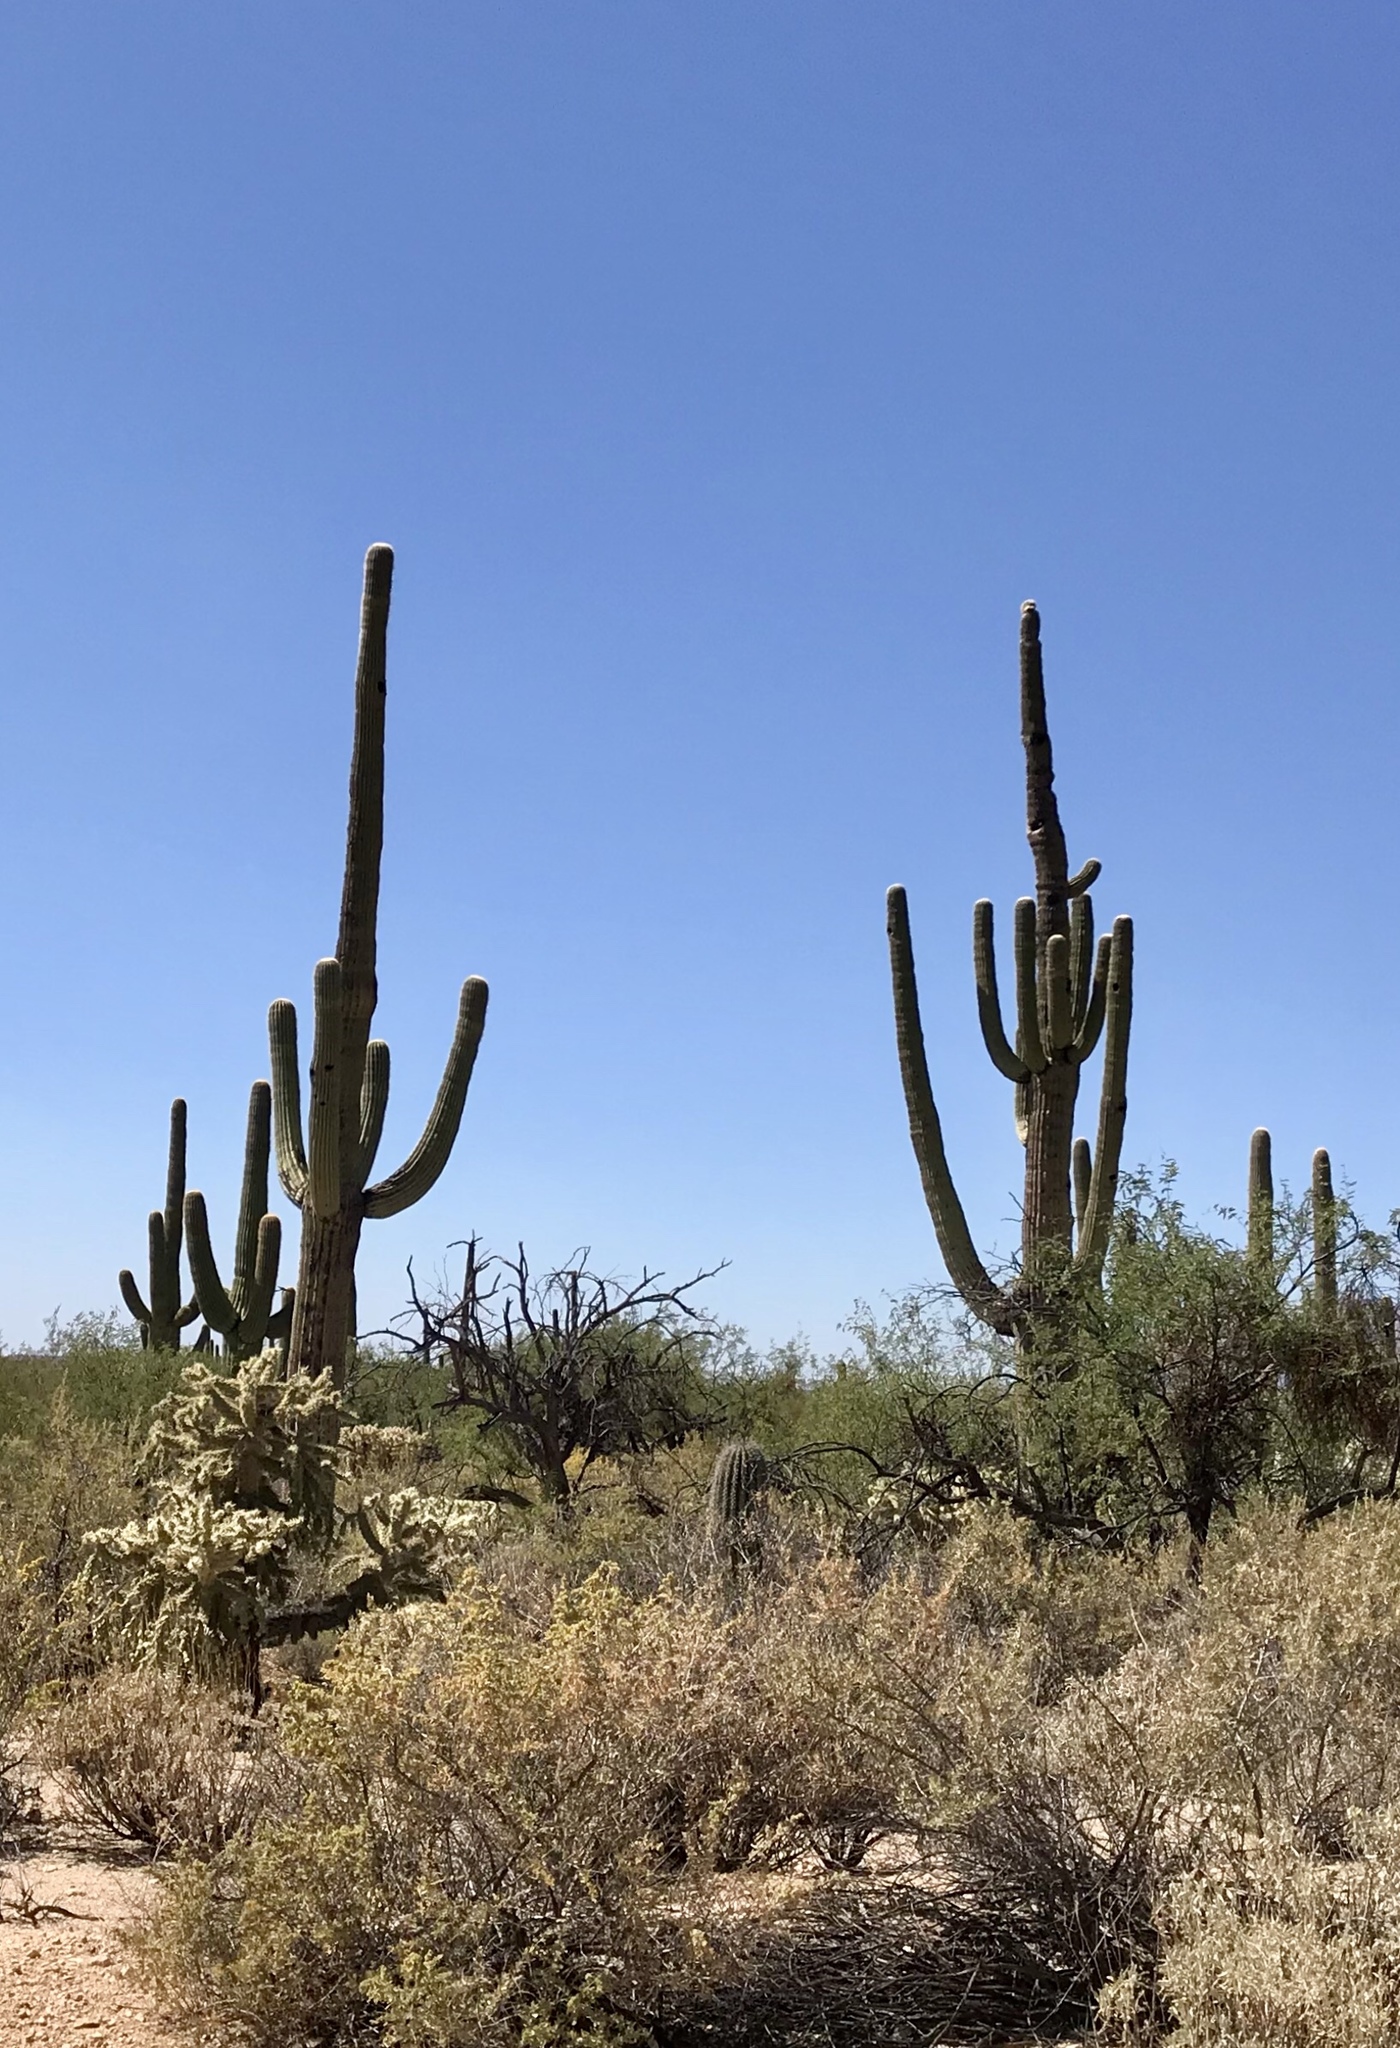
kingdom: Plantae
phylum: Tracheophyta
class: Magnoliopsida
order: Caryophyllales
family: Cactaceae
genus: Carnegiea
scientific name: Carnegiea gigantea
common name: Saguaro
